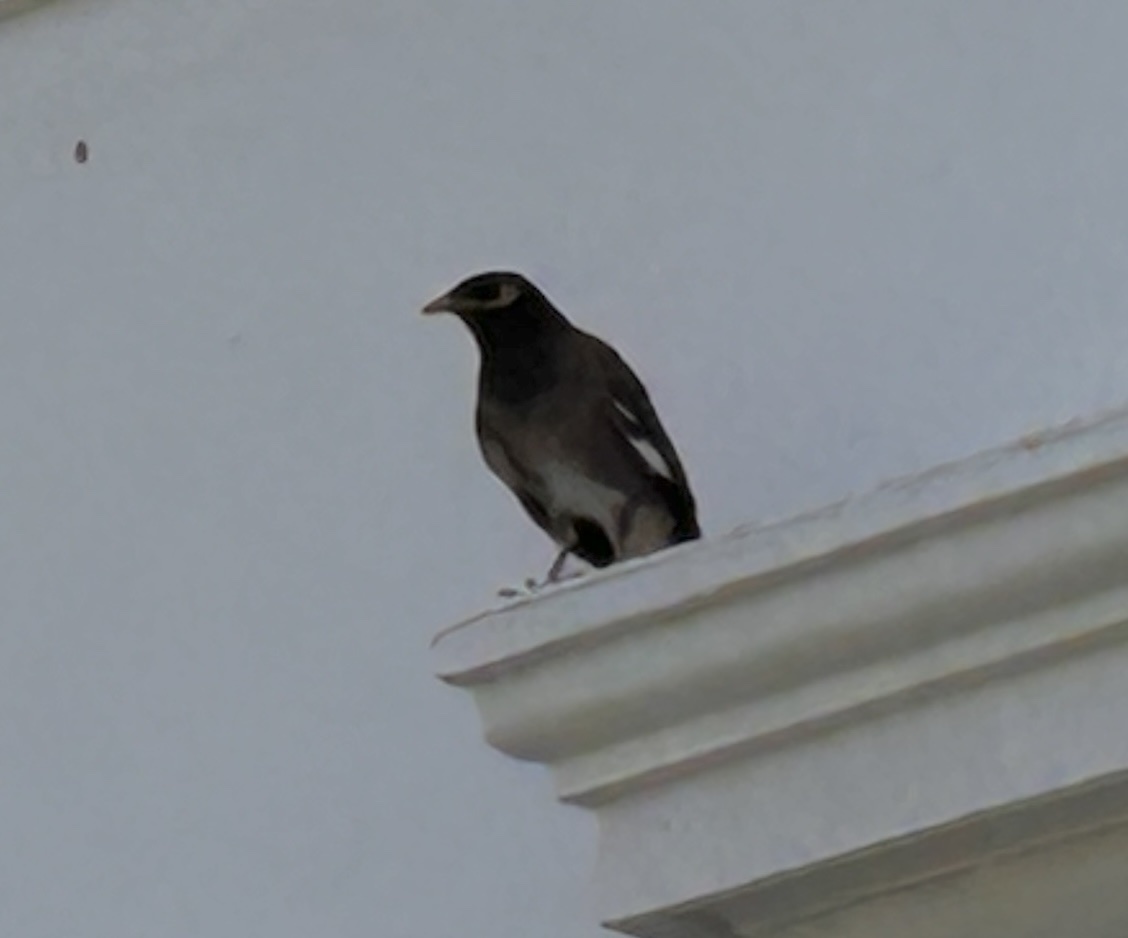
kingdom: Animalia
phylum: Chordata
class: Aves
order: Passeriformes
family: Sturnidae
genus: Acridotheres
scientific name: Acridotheres tristis
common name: Common myna
